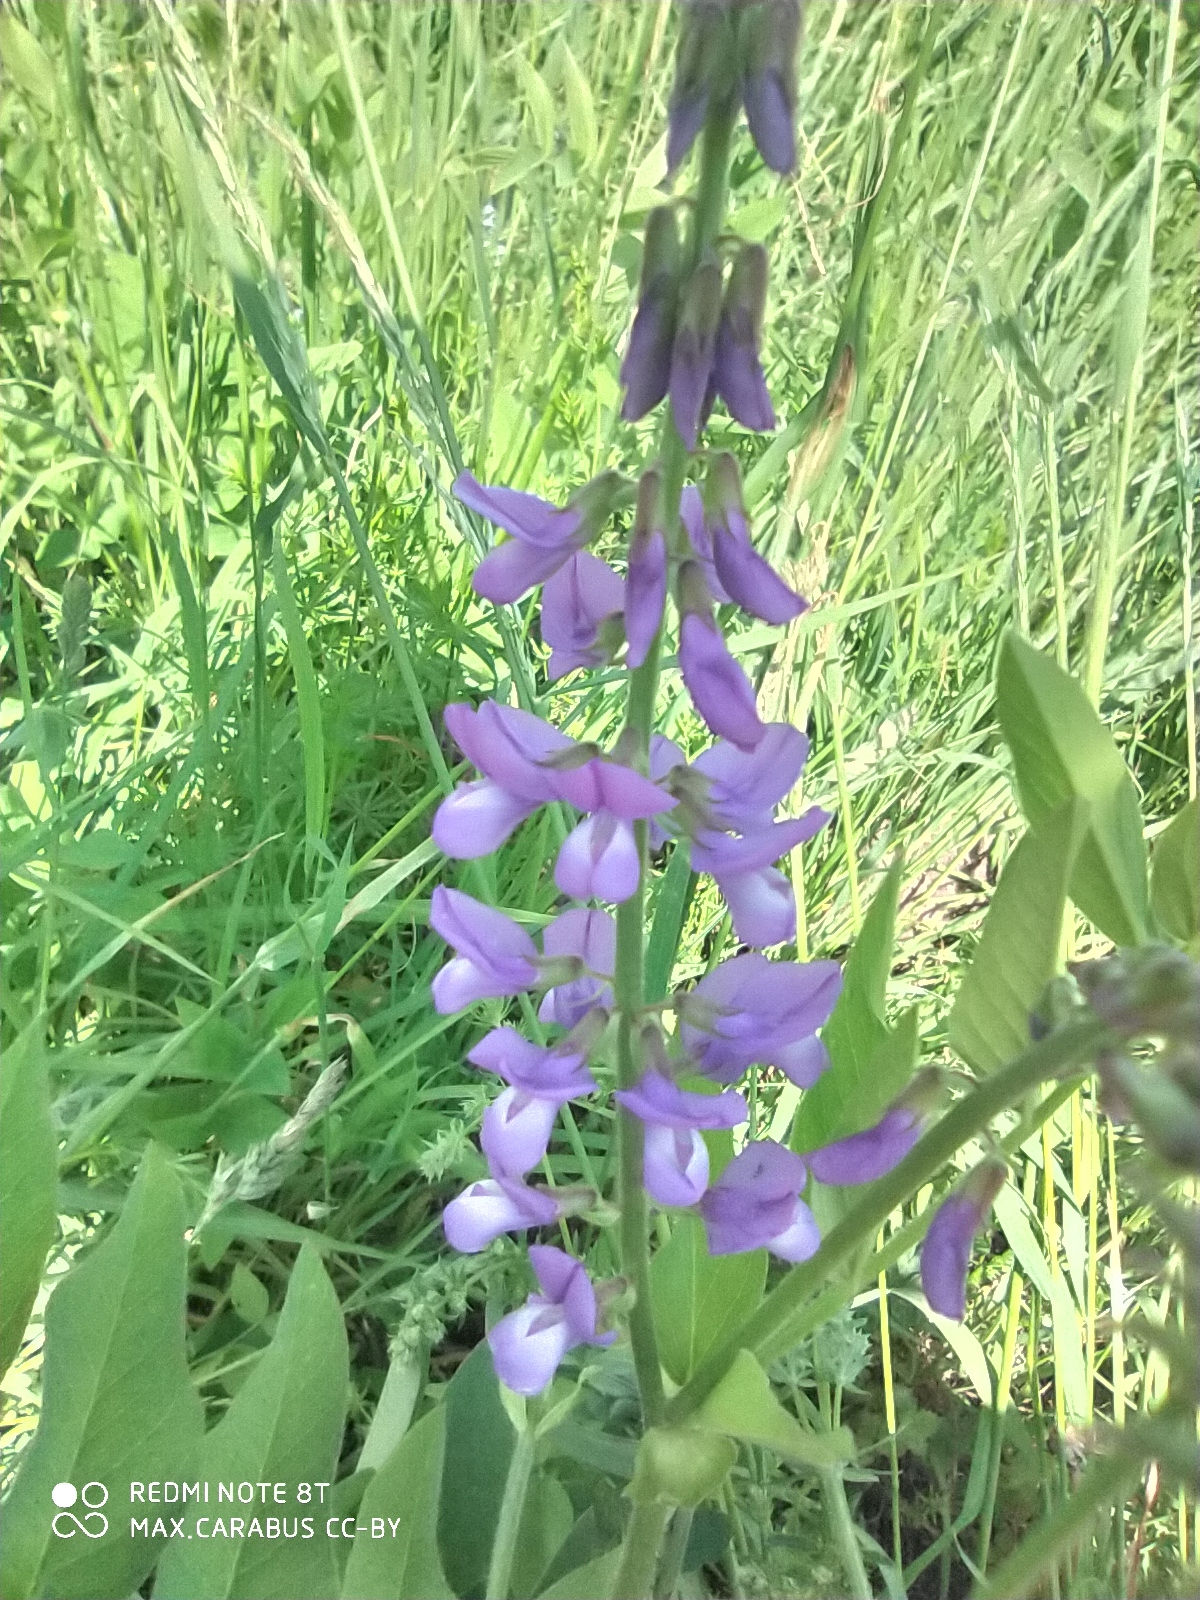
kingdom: Plantae
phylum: Tracheophyta
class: Magnoliopsida
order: Fabales
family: Fabaceae
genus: Galega
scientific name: Galega orientalis
